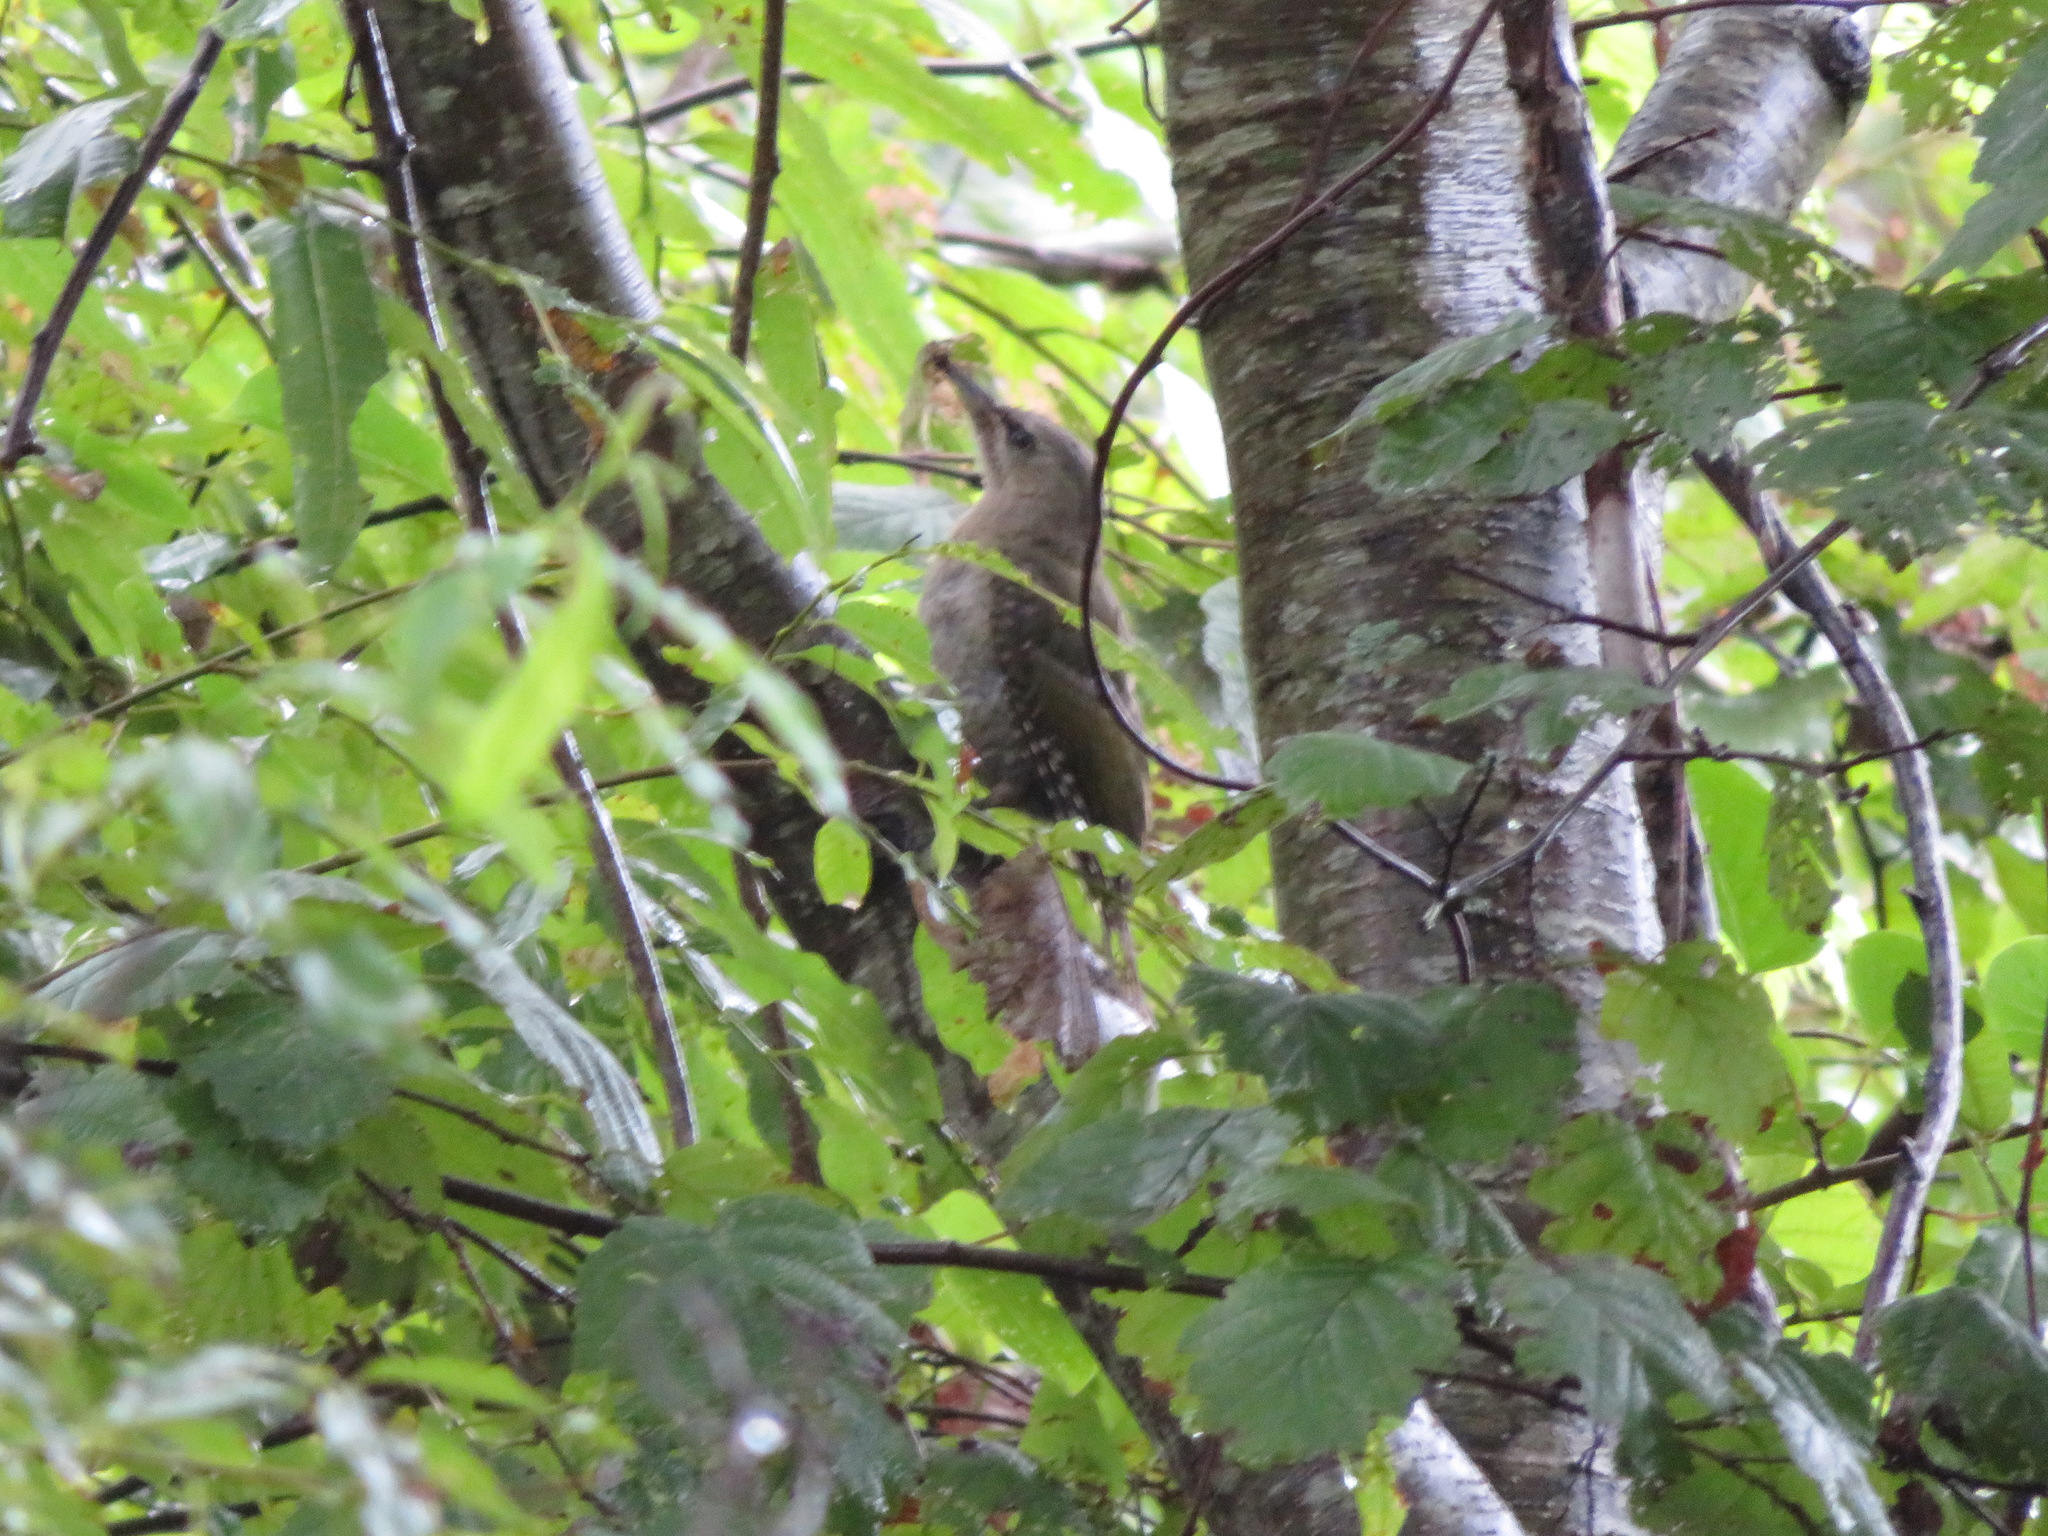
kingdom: Animalia
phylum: Chordata
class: Aves
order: Piciformes
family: Picidae
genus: Picus
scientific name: Picus canus
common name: Grey-headed woodpecker
